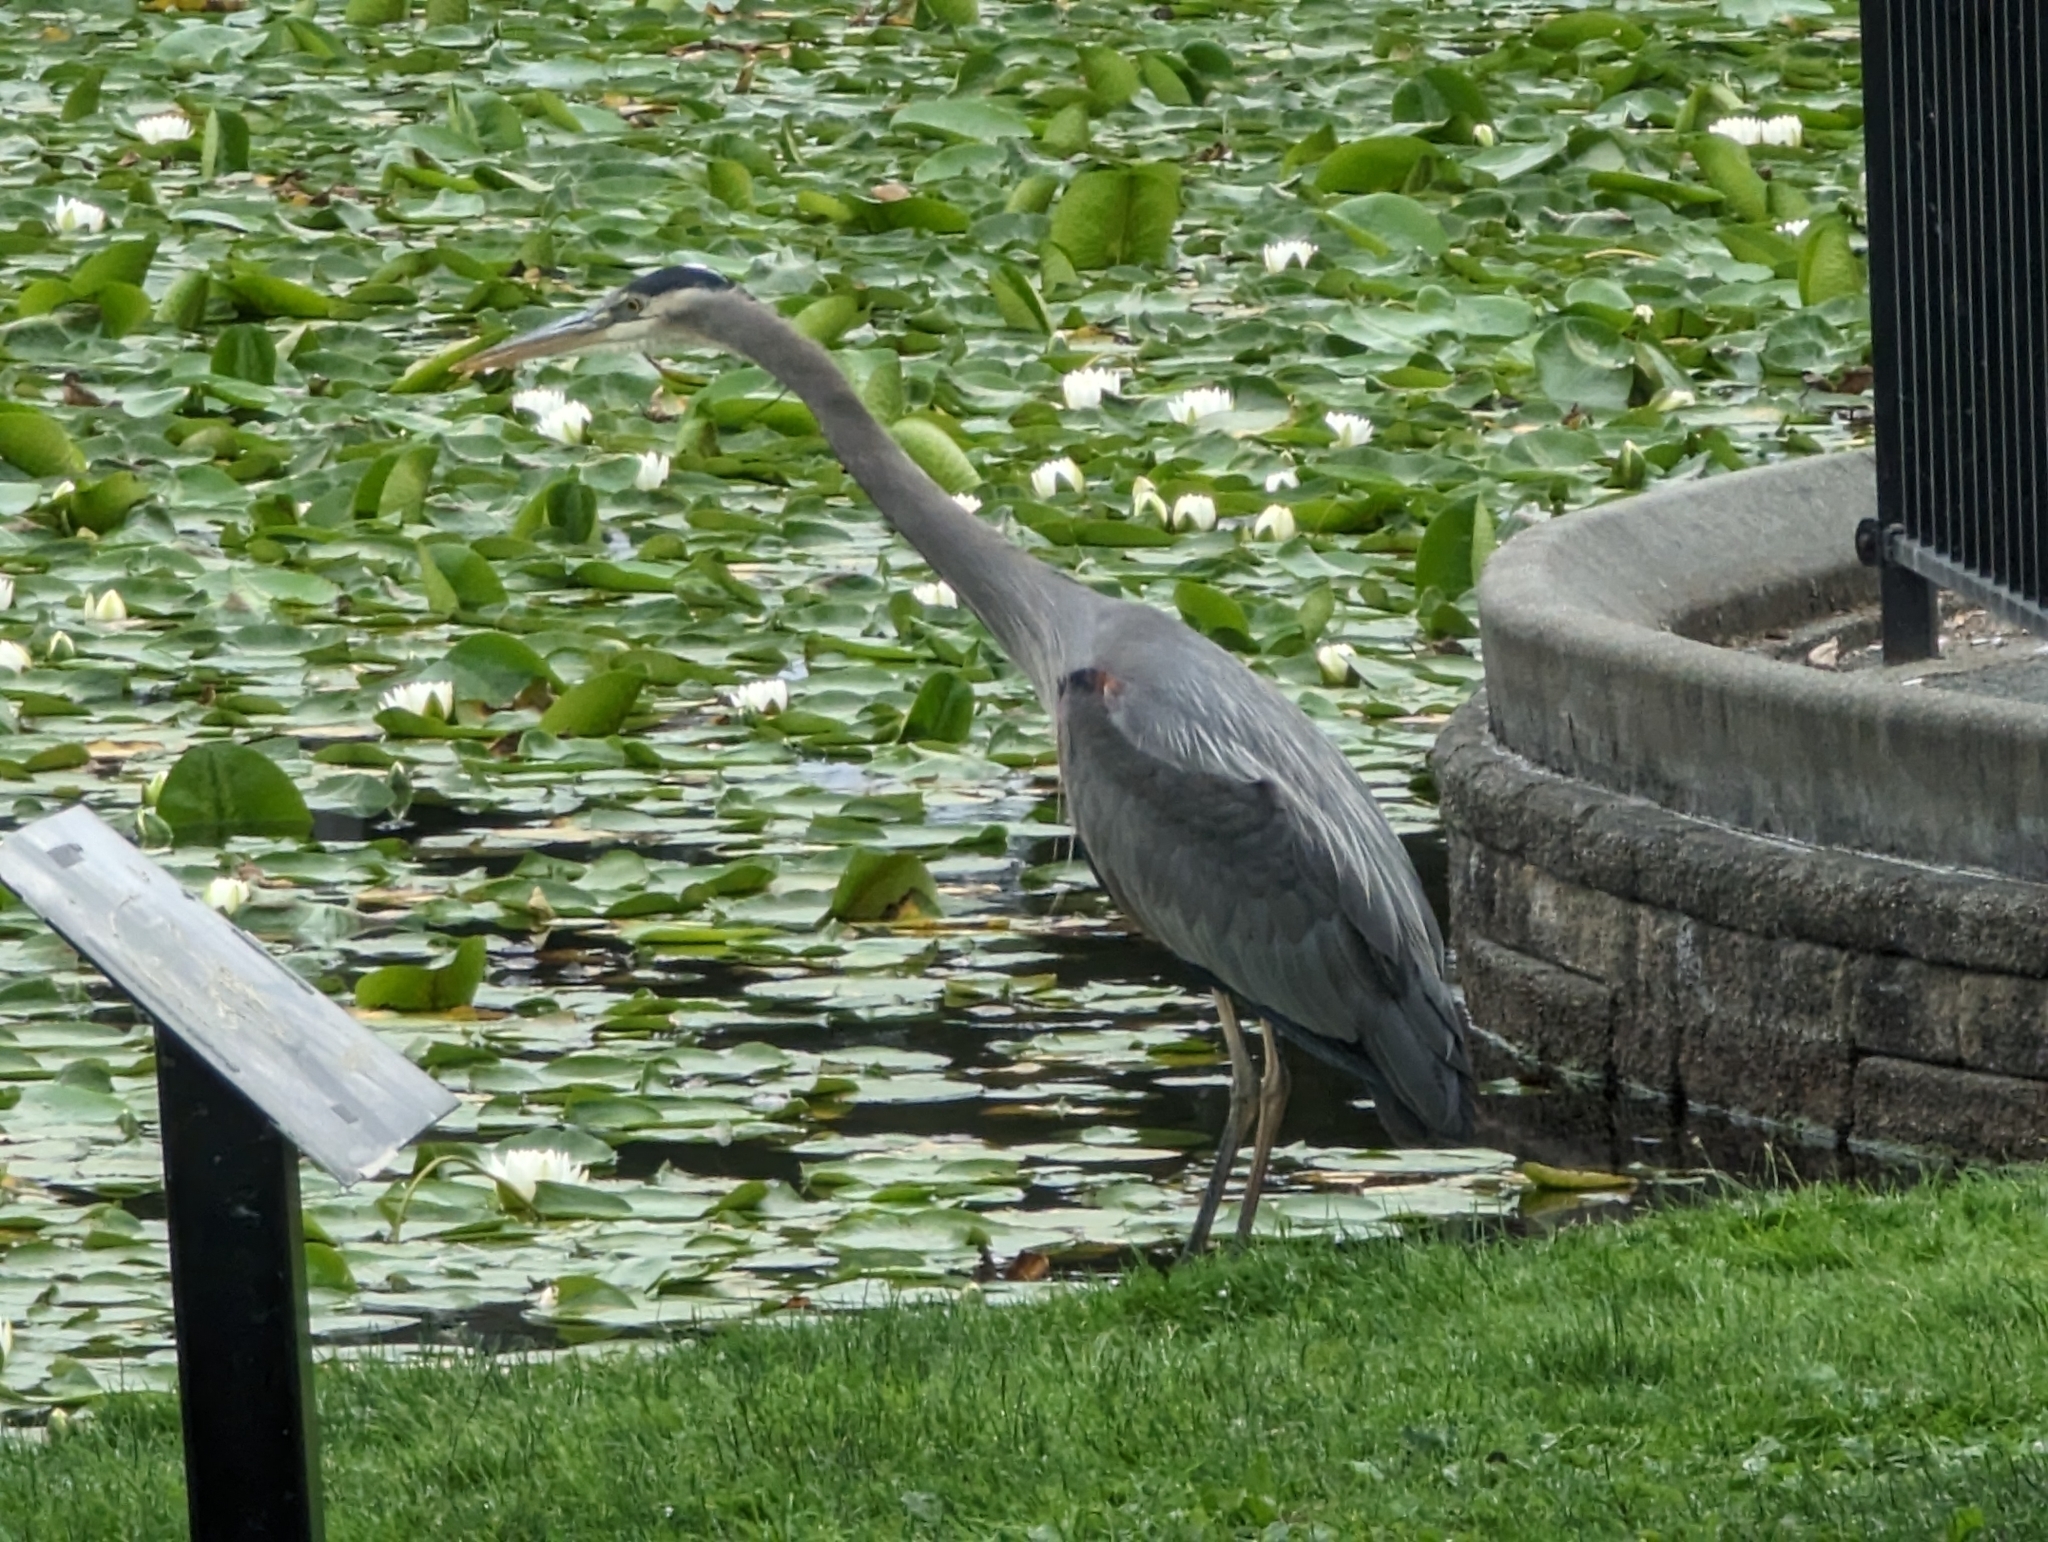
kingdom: Animalia
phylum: Chordata
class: Aves
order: Pelecaniformes
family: Ardeidae
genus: Ardea
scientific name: Ardea herodias
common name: Great blue heron
